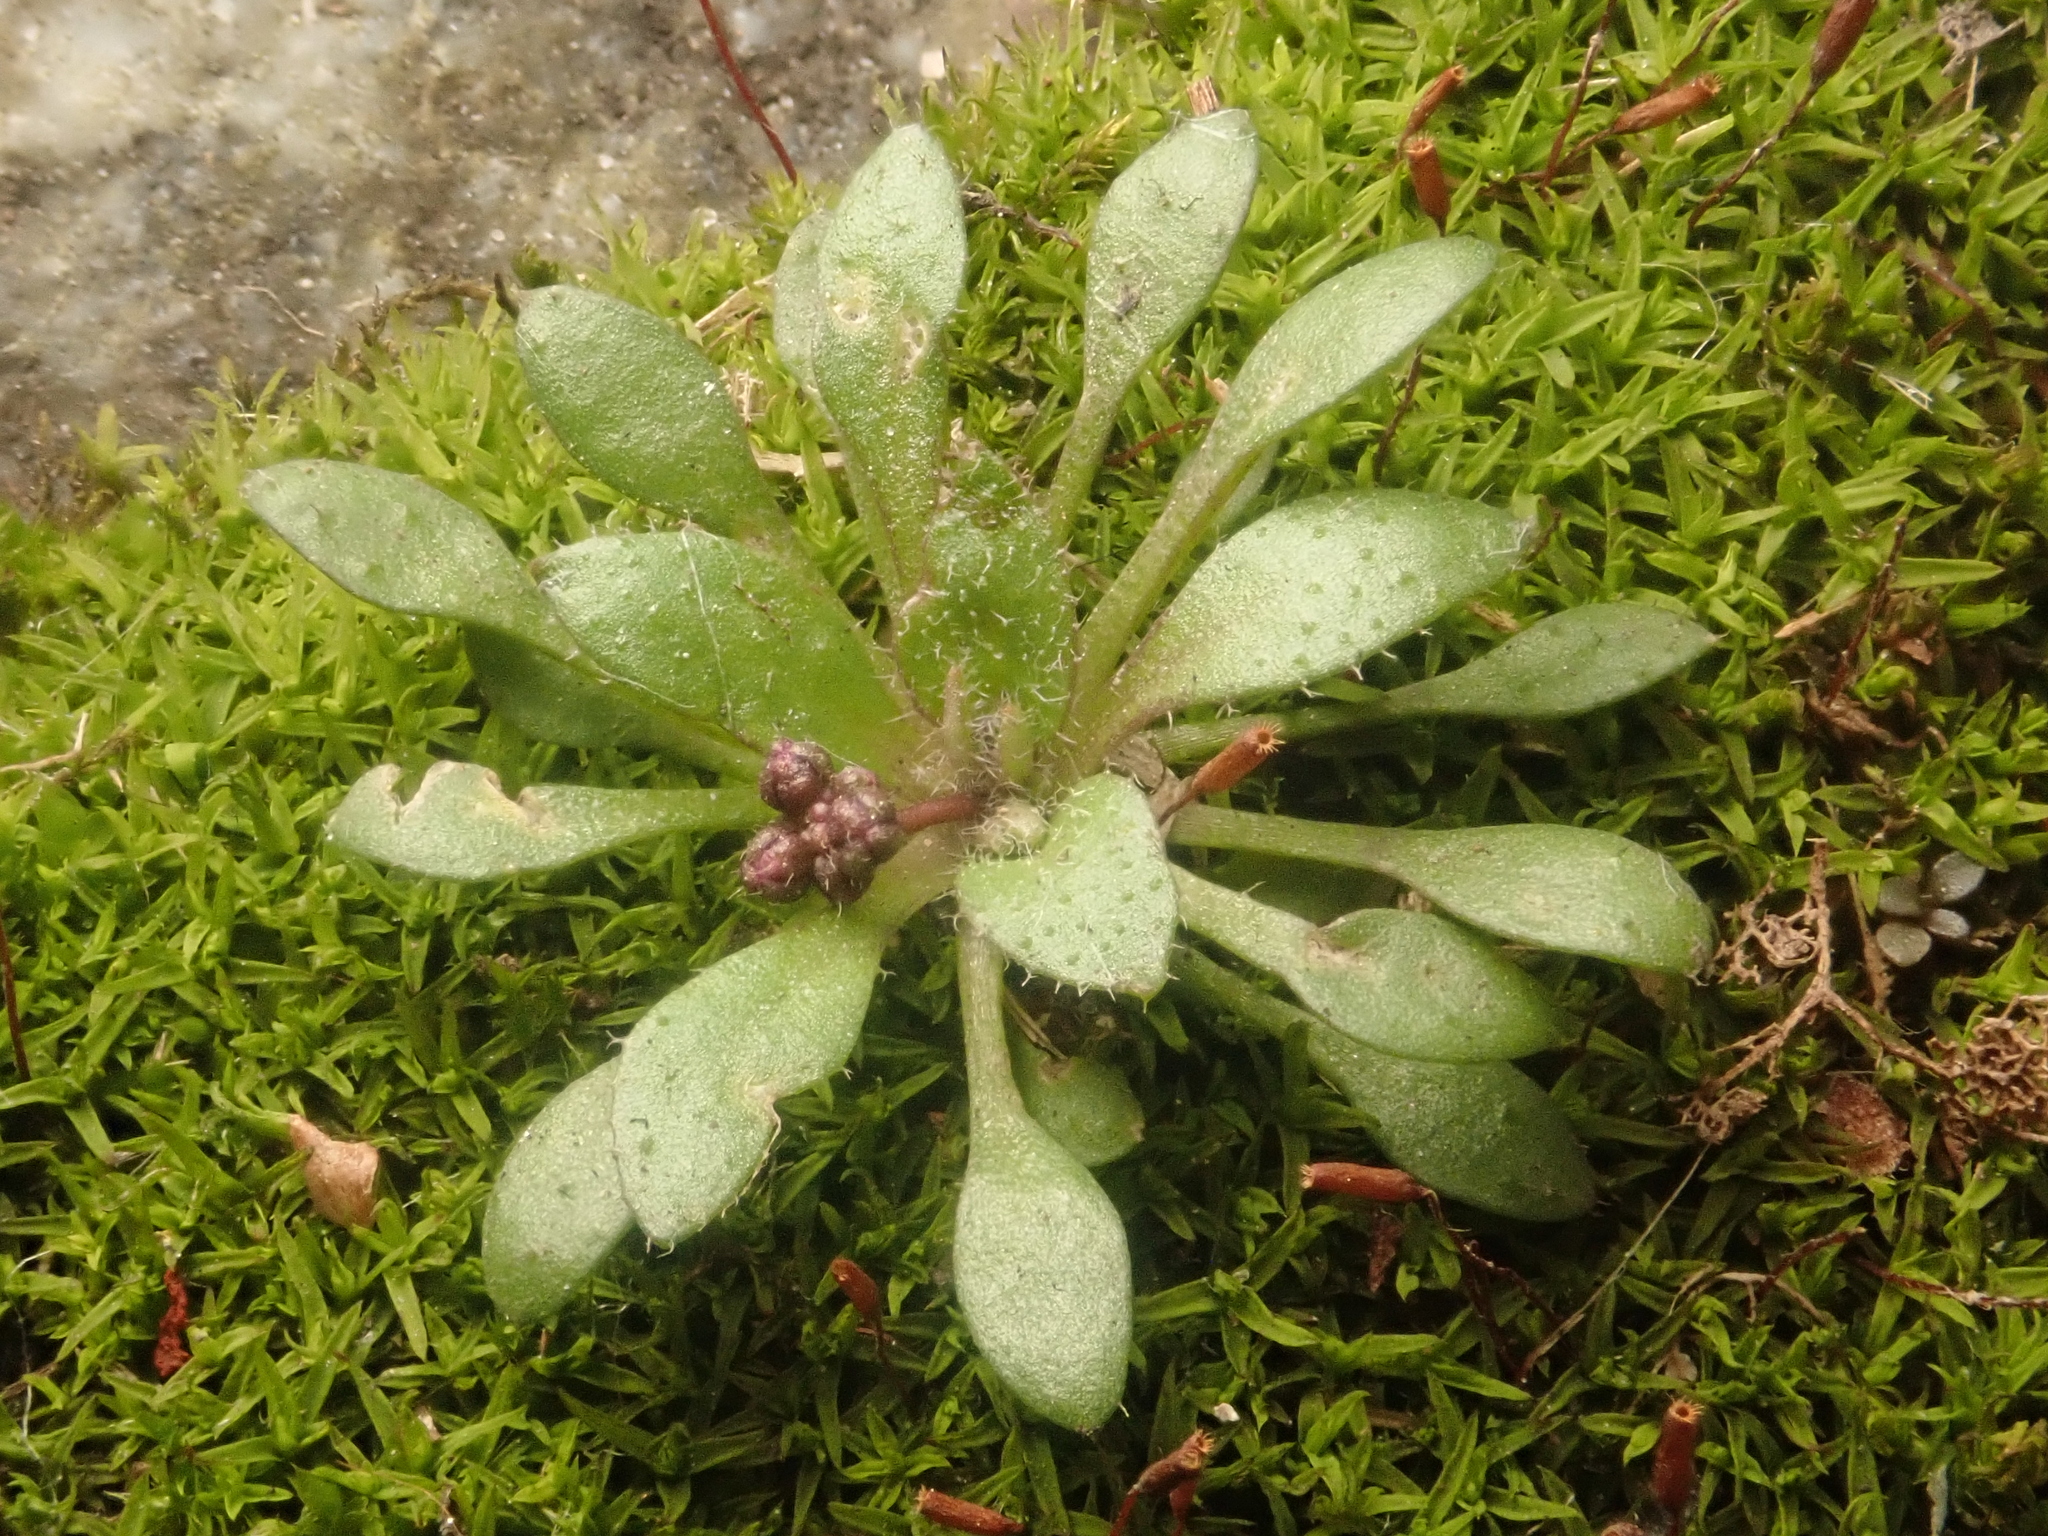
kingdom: Plantae
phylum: Tracheophyta
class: Magnoliopsida
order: Brassicales
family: Brassicaceae
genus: Draba
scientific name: Draba verna
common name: Spring draba
